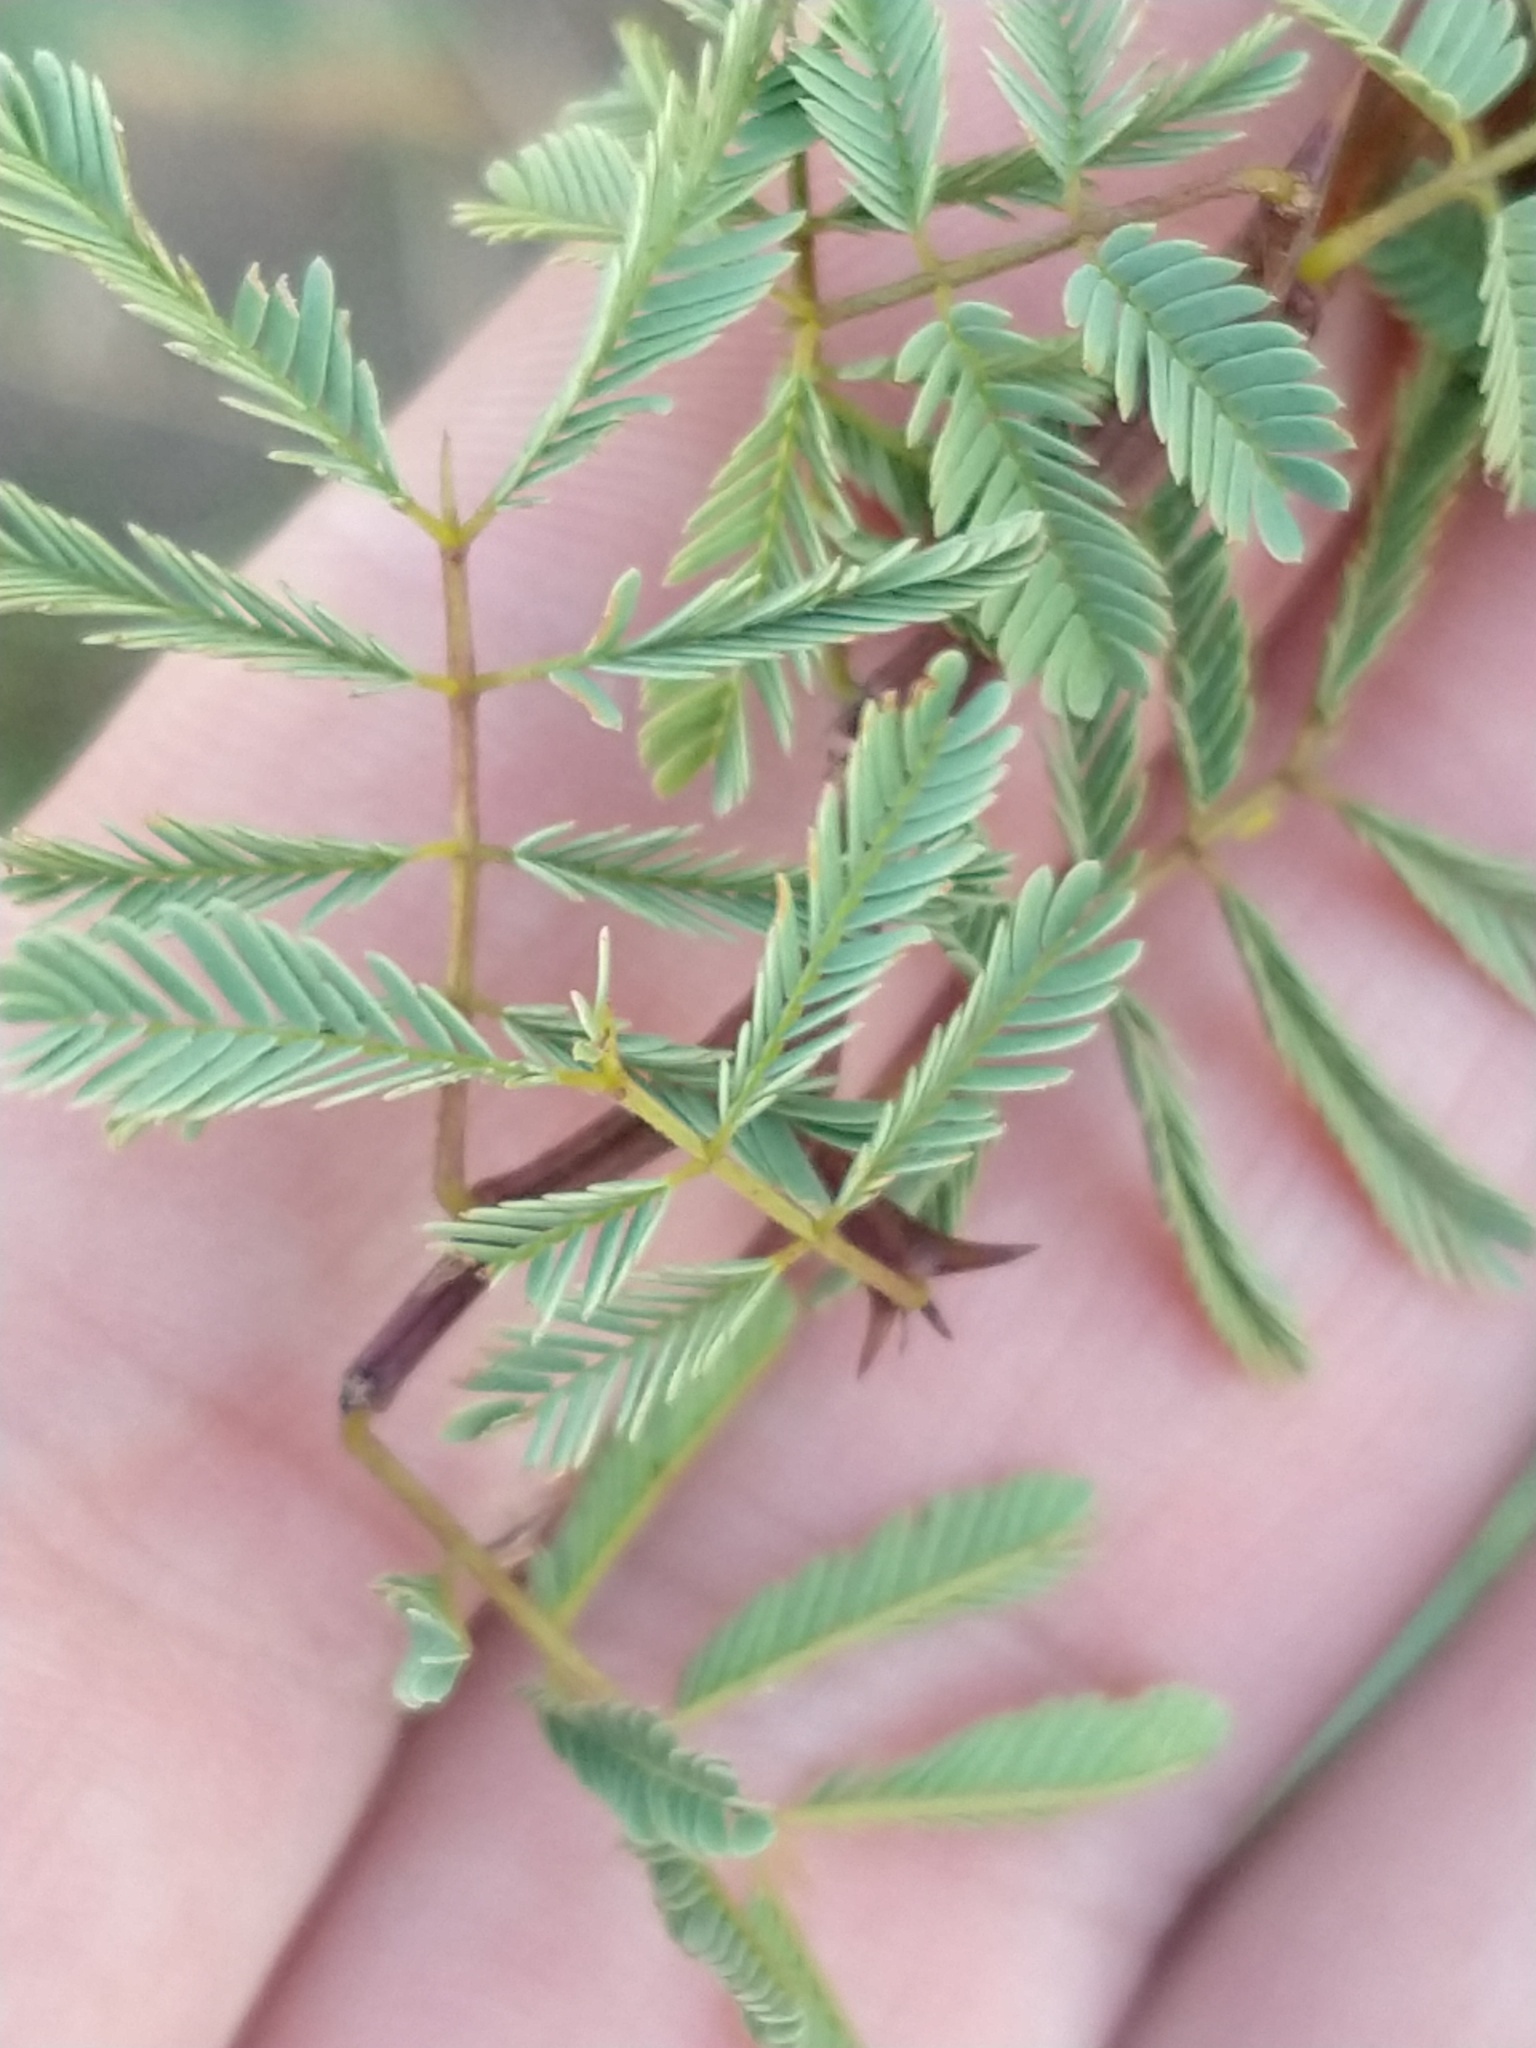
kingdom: Plantae
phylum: Tracheophyta
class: Magnoliopsida
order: Fabales
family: Fabaceae
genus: Senegalia
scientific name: Senegalia gilliesii
